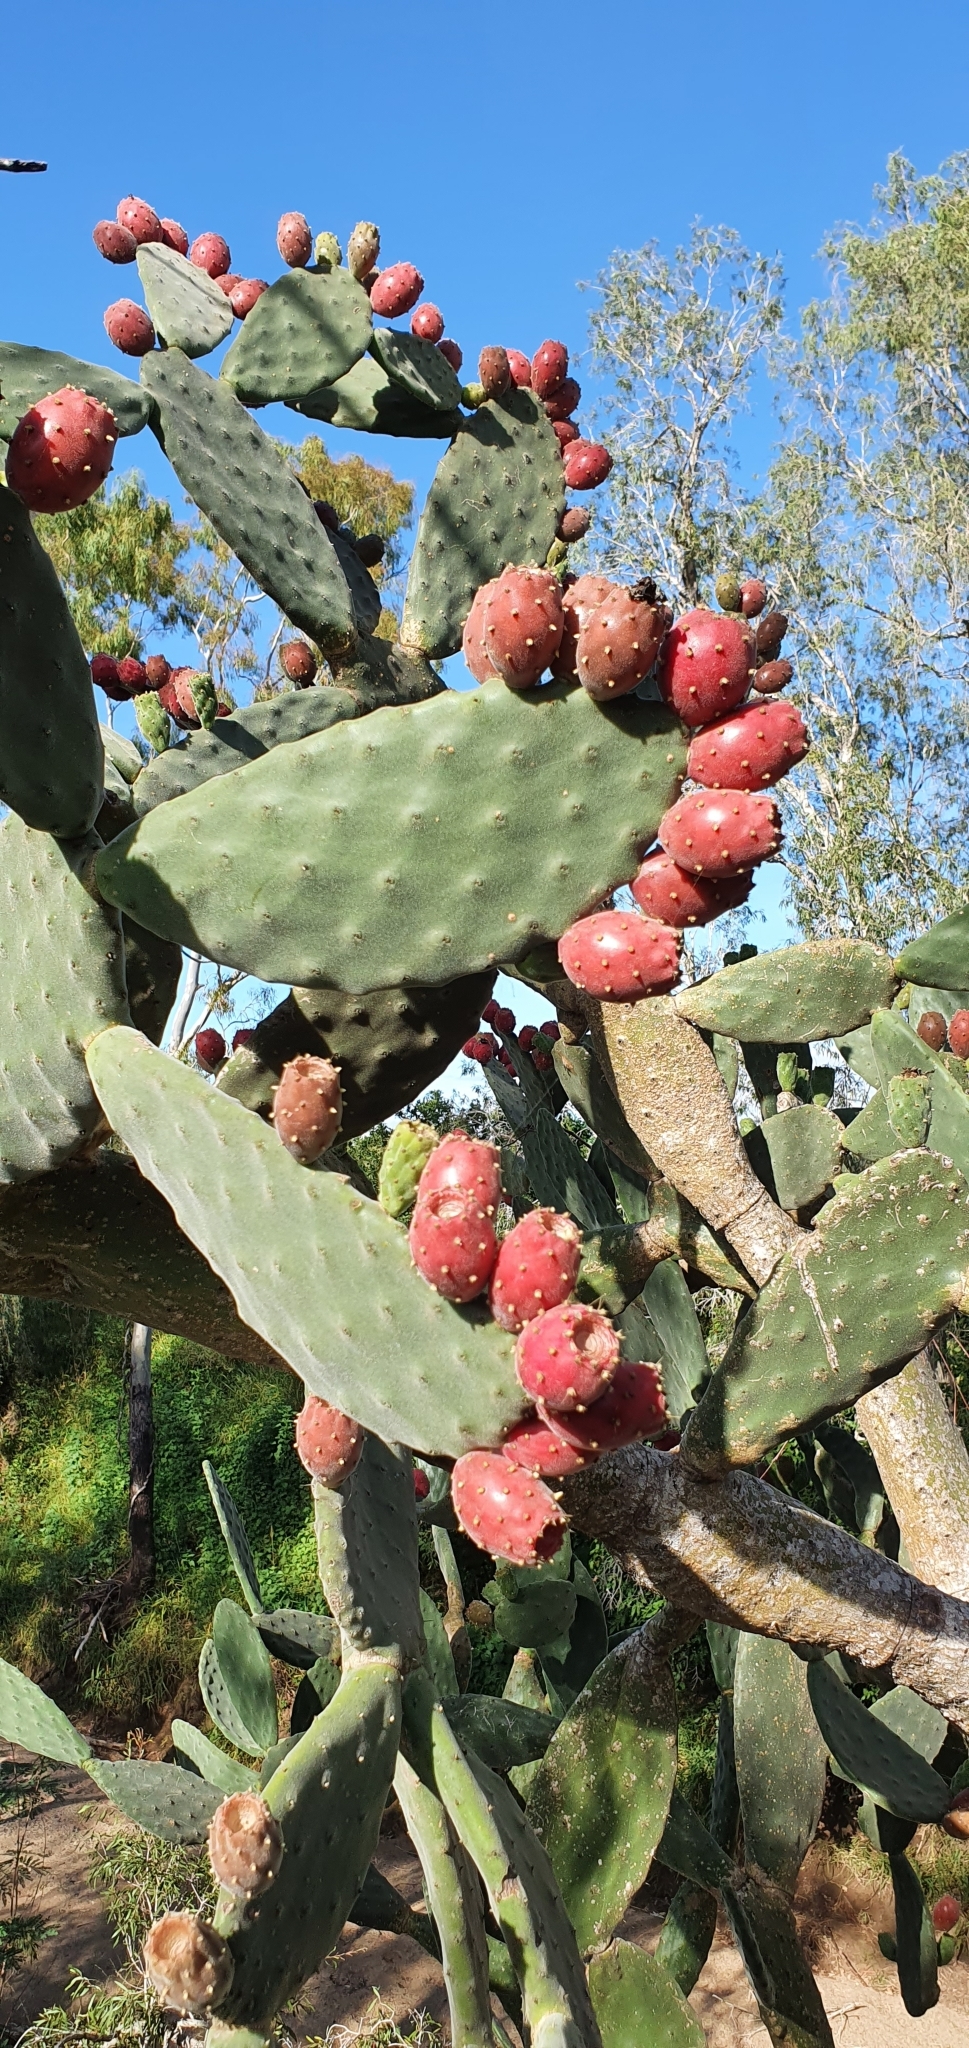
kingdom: Plantae
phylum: Tracheophyta
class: Magnoliopsida
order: Caryophyllales
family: Cactaceae
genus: Opuntia
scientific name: Opuntia tomentosa
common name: Woollyjoint pricklypear
